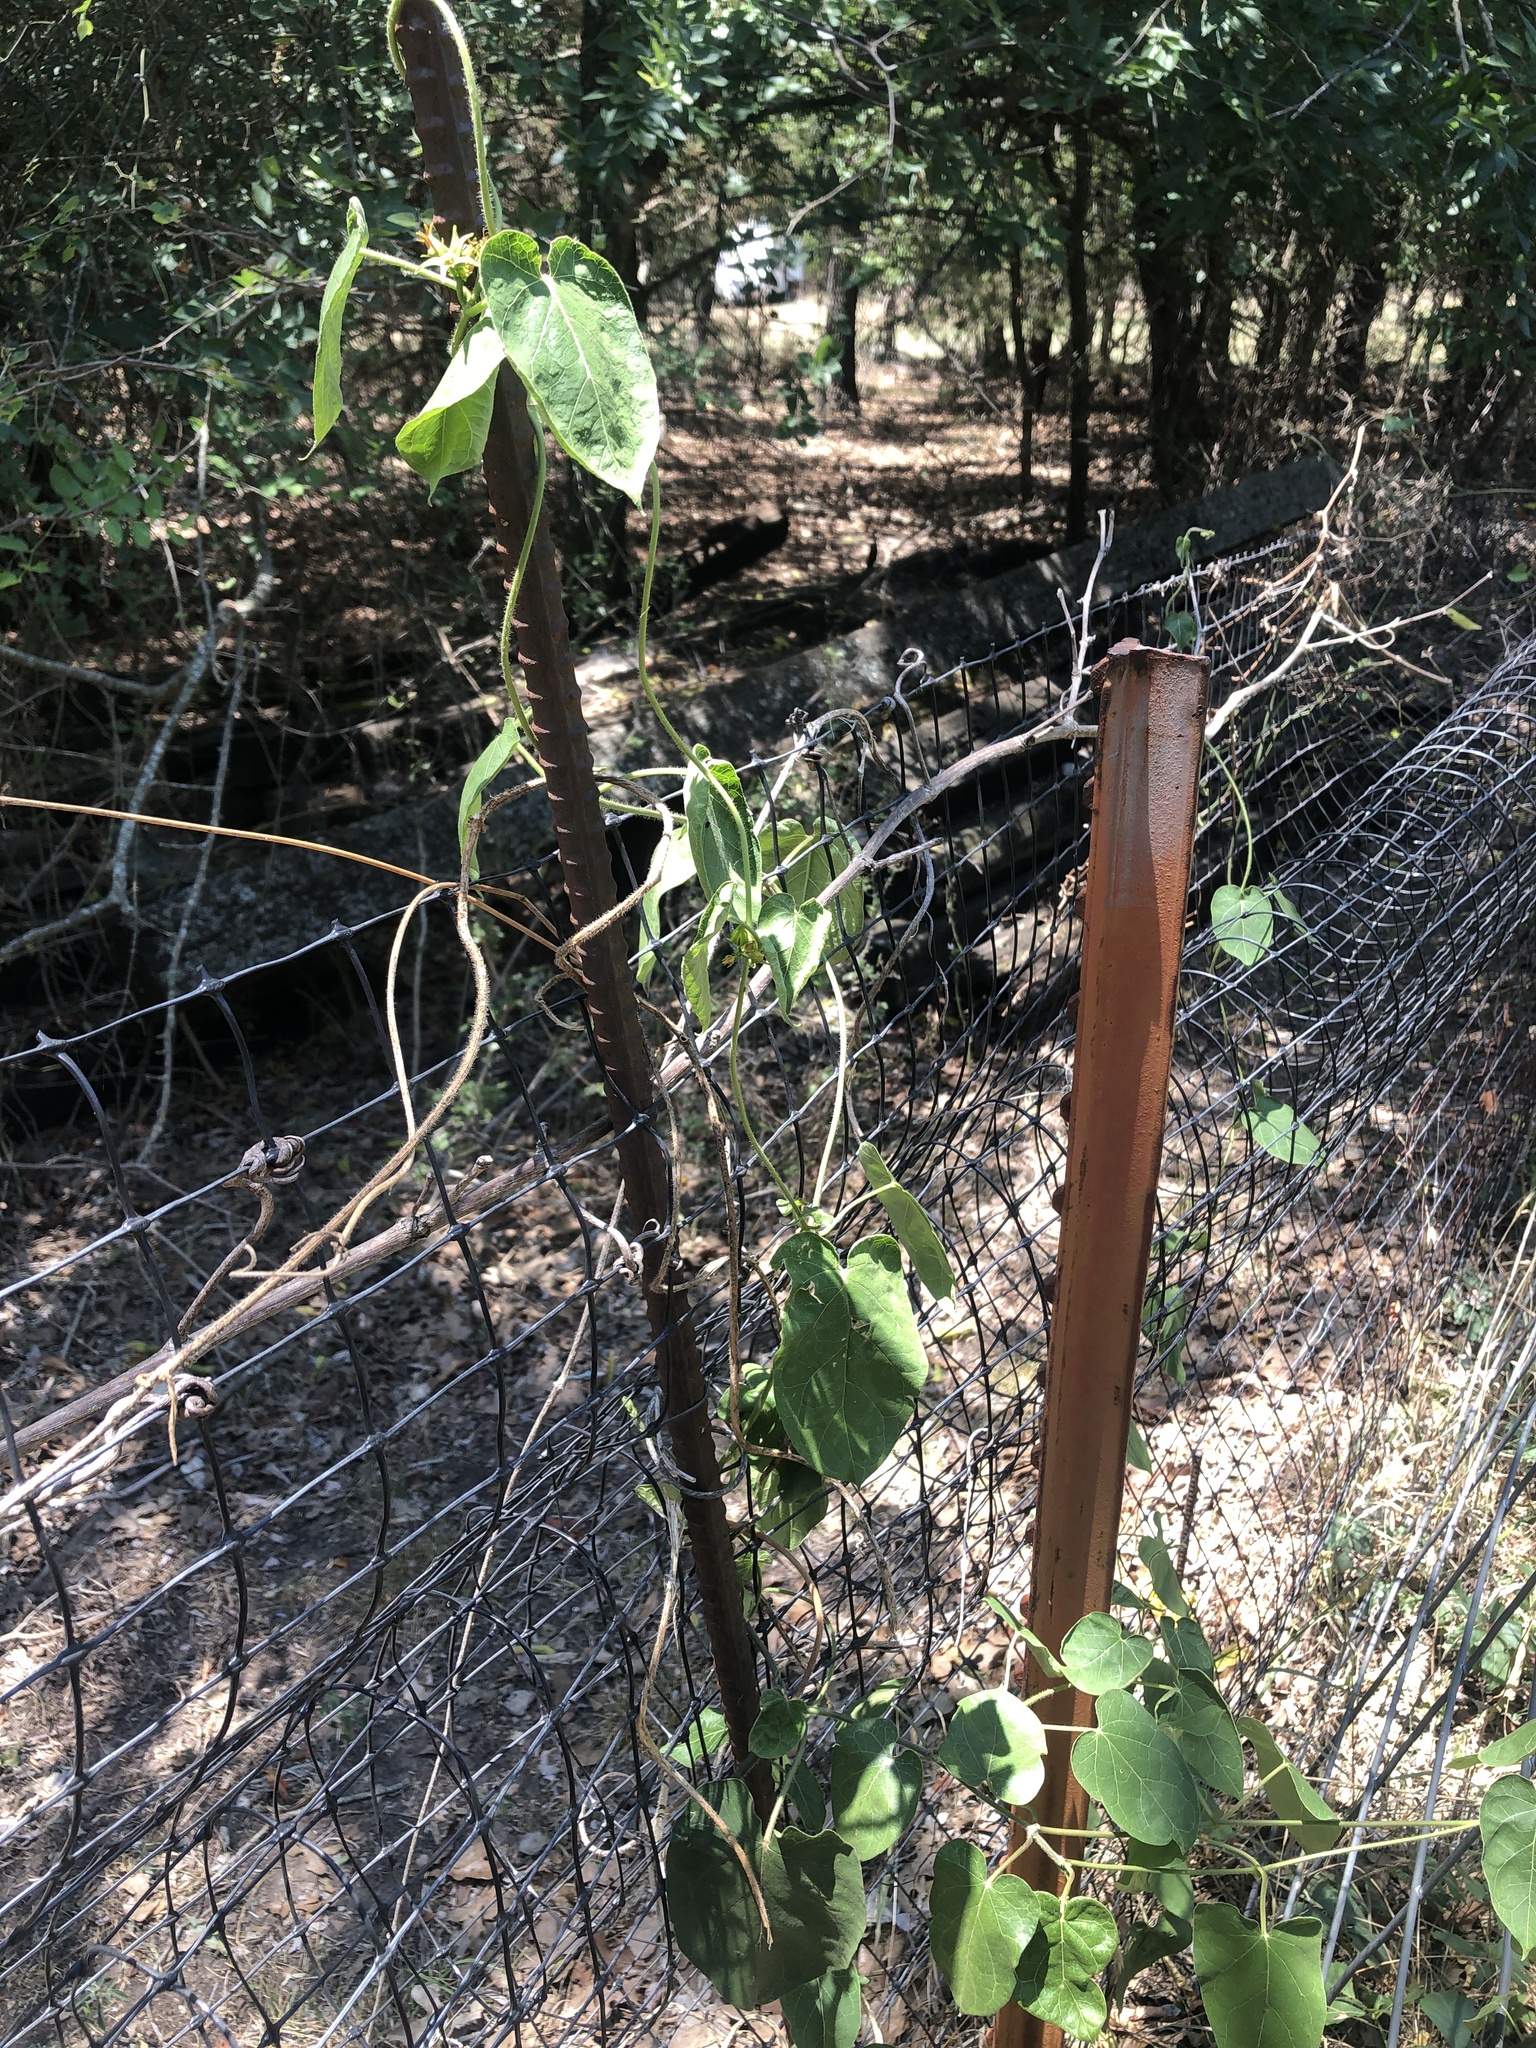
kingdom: Plantae
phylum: Tracheophyta
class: Magnoliopsida
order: Gentianales
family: Apocynaceae
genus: Gonolobus
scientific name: Gonolobus suberosus
